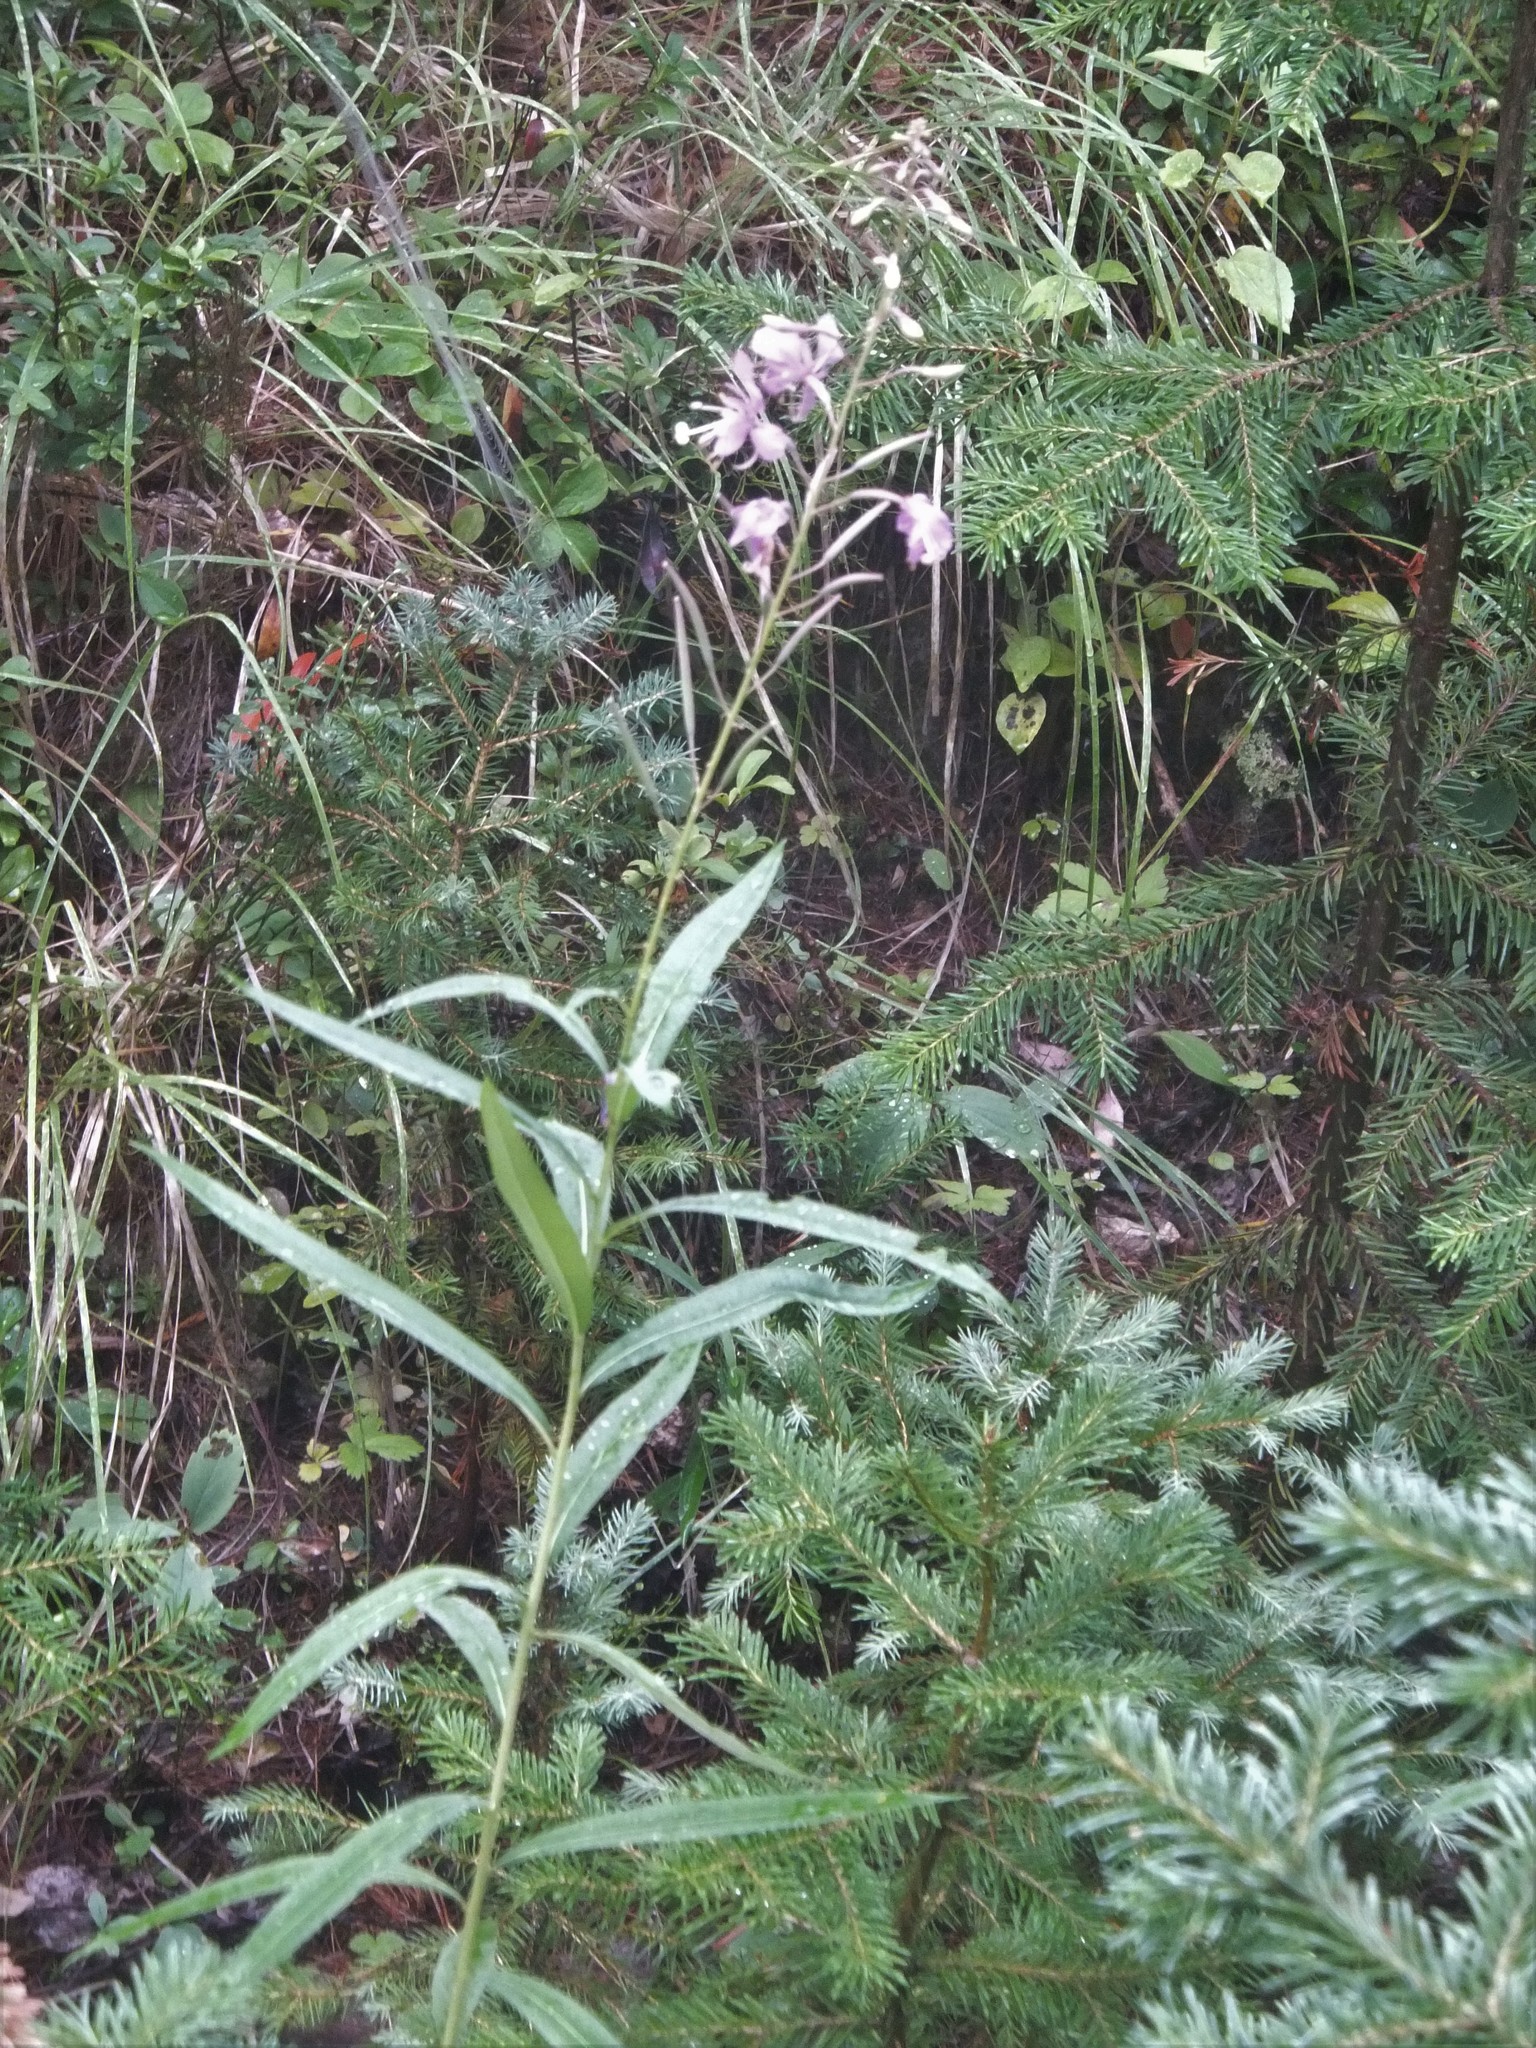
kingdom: Plantae
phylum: Tracheophyta
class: Magnoliopsida
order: Myrtales
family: Onagraceae
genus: Chamaenerion
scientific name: Chamaenerion angustifolium
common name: Fireweed
